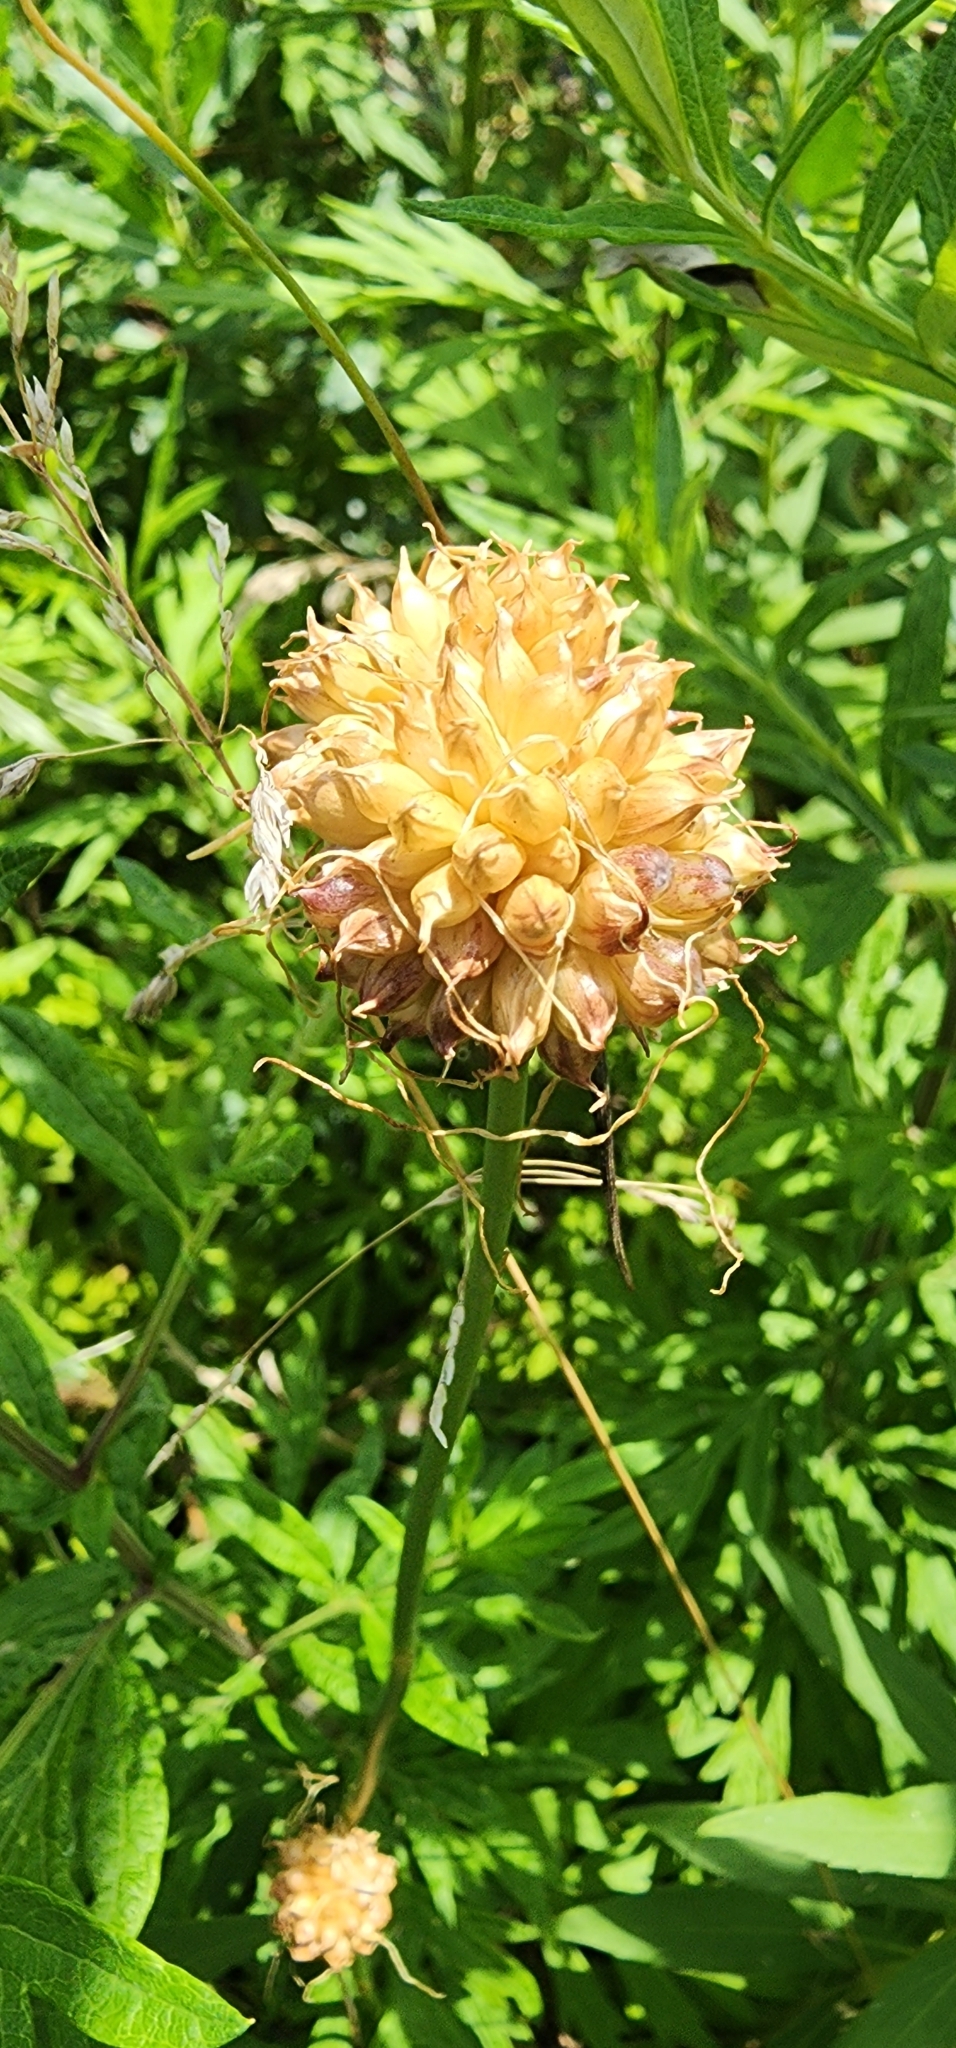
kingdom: Plantae
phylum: Tracheophyta
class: Liliopsida
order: Asparagales
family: Amaryllidaceae
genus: Allium
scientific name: Allium vineale
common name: Crow garlic
